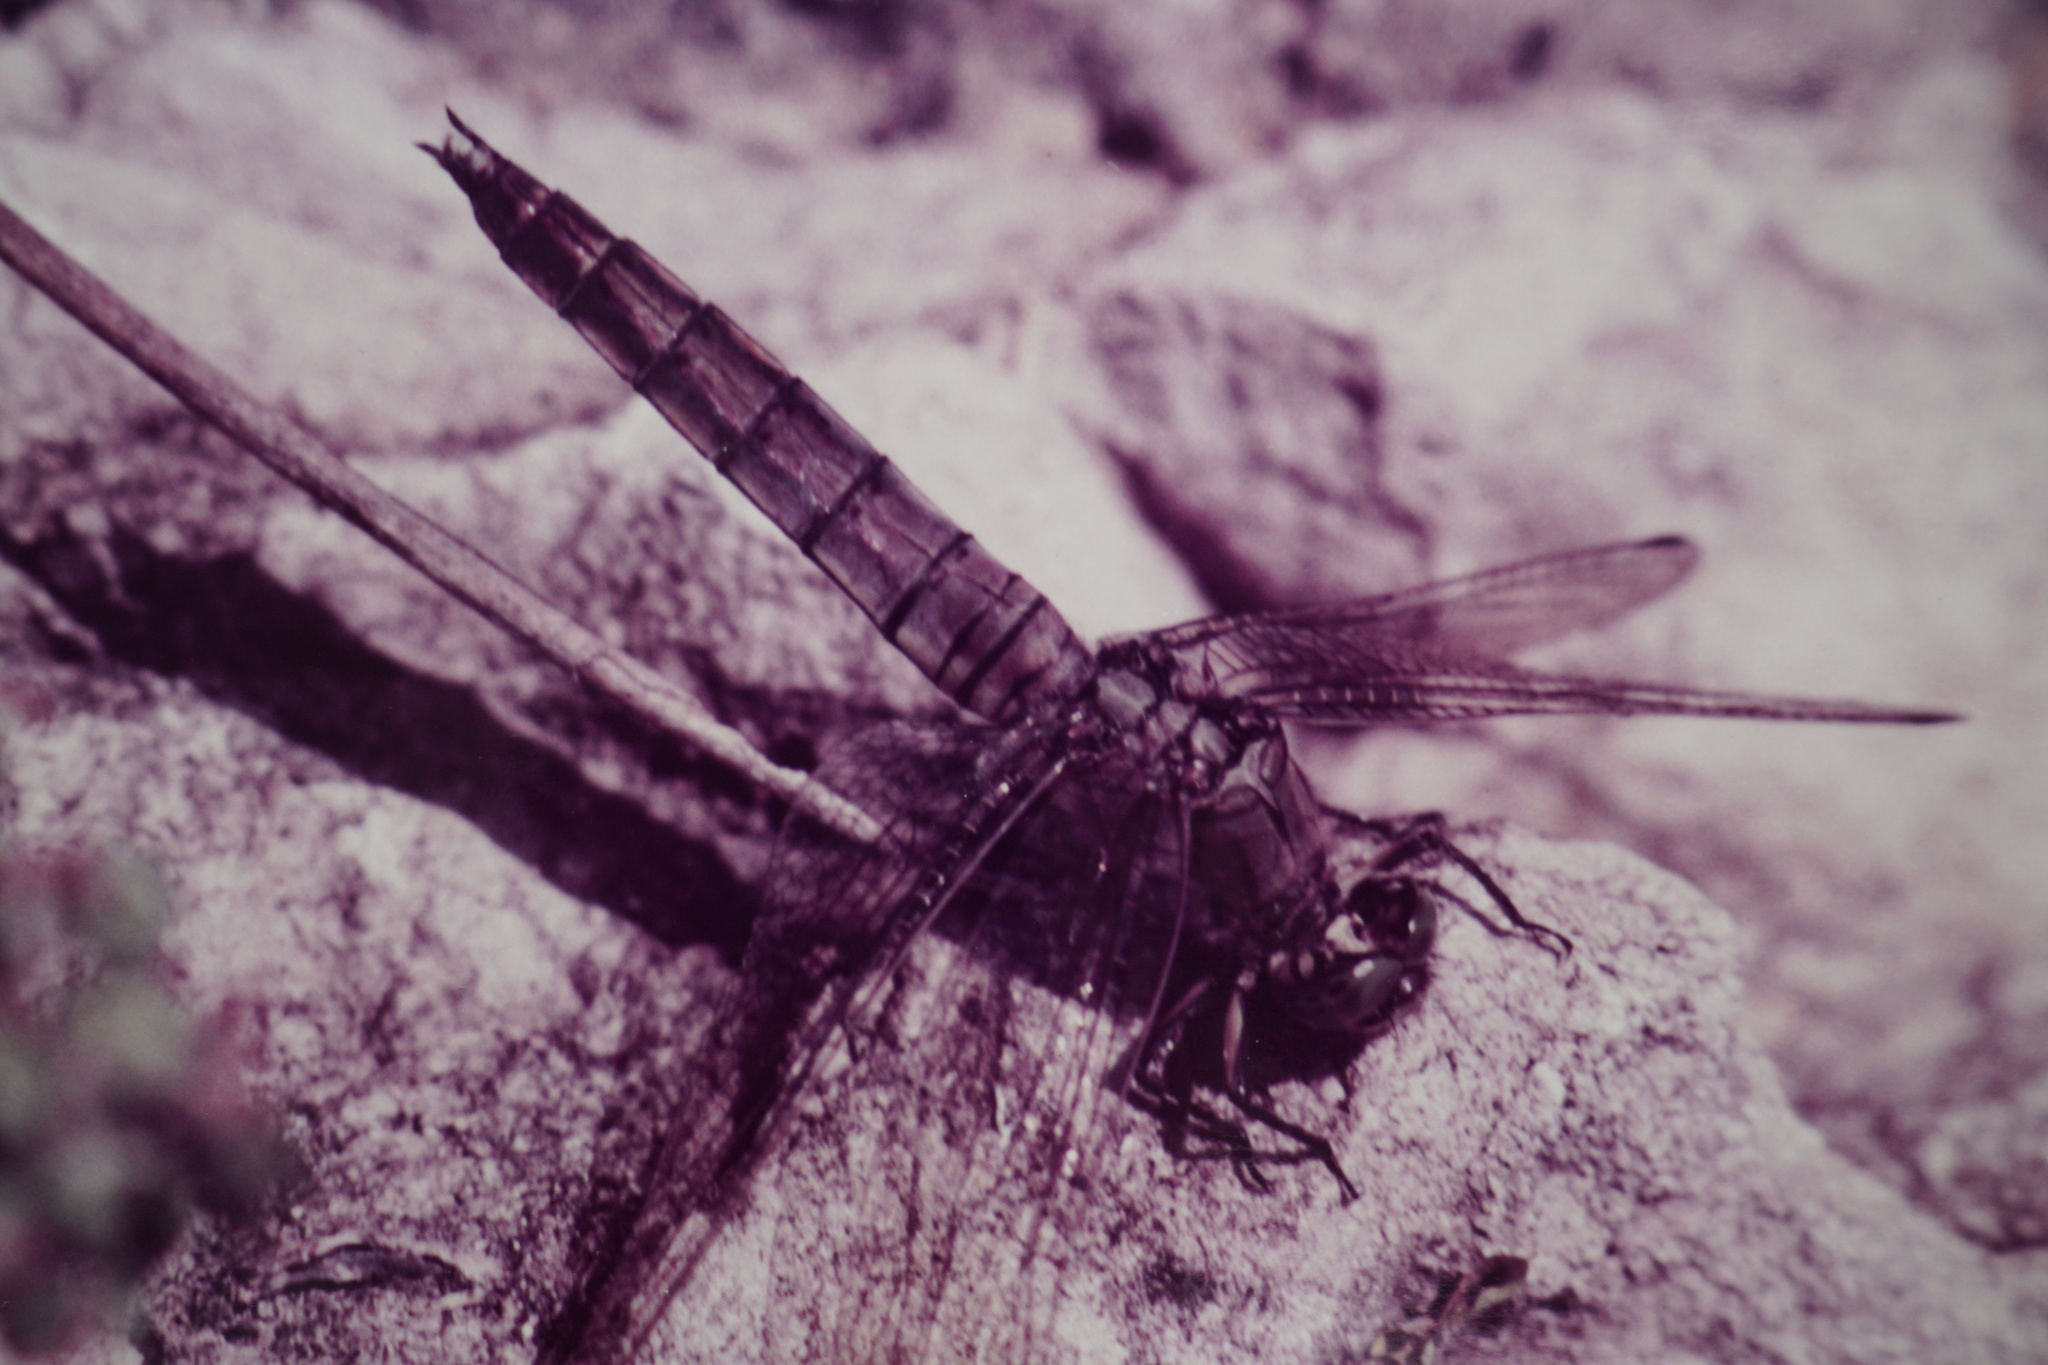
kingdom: Animalia
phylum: Arthropoda
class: Insecta
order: Odonata
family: Libellulidae
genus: Orthetrum
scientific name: Orthetrum cancellatum
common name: Black-tailed skimmer
